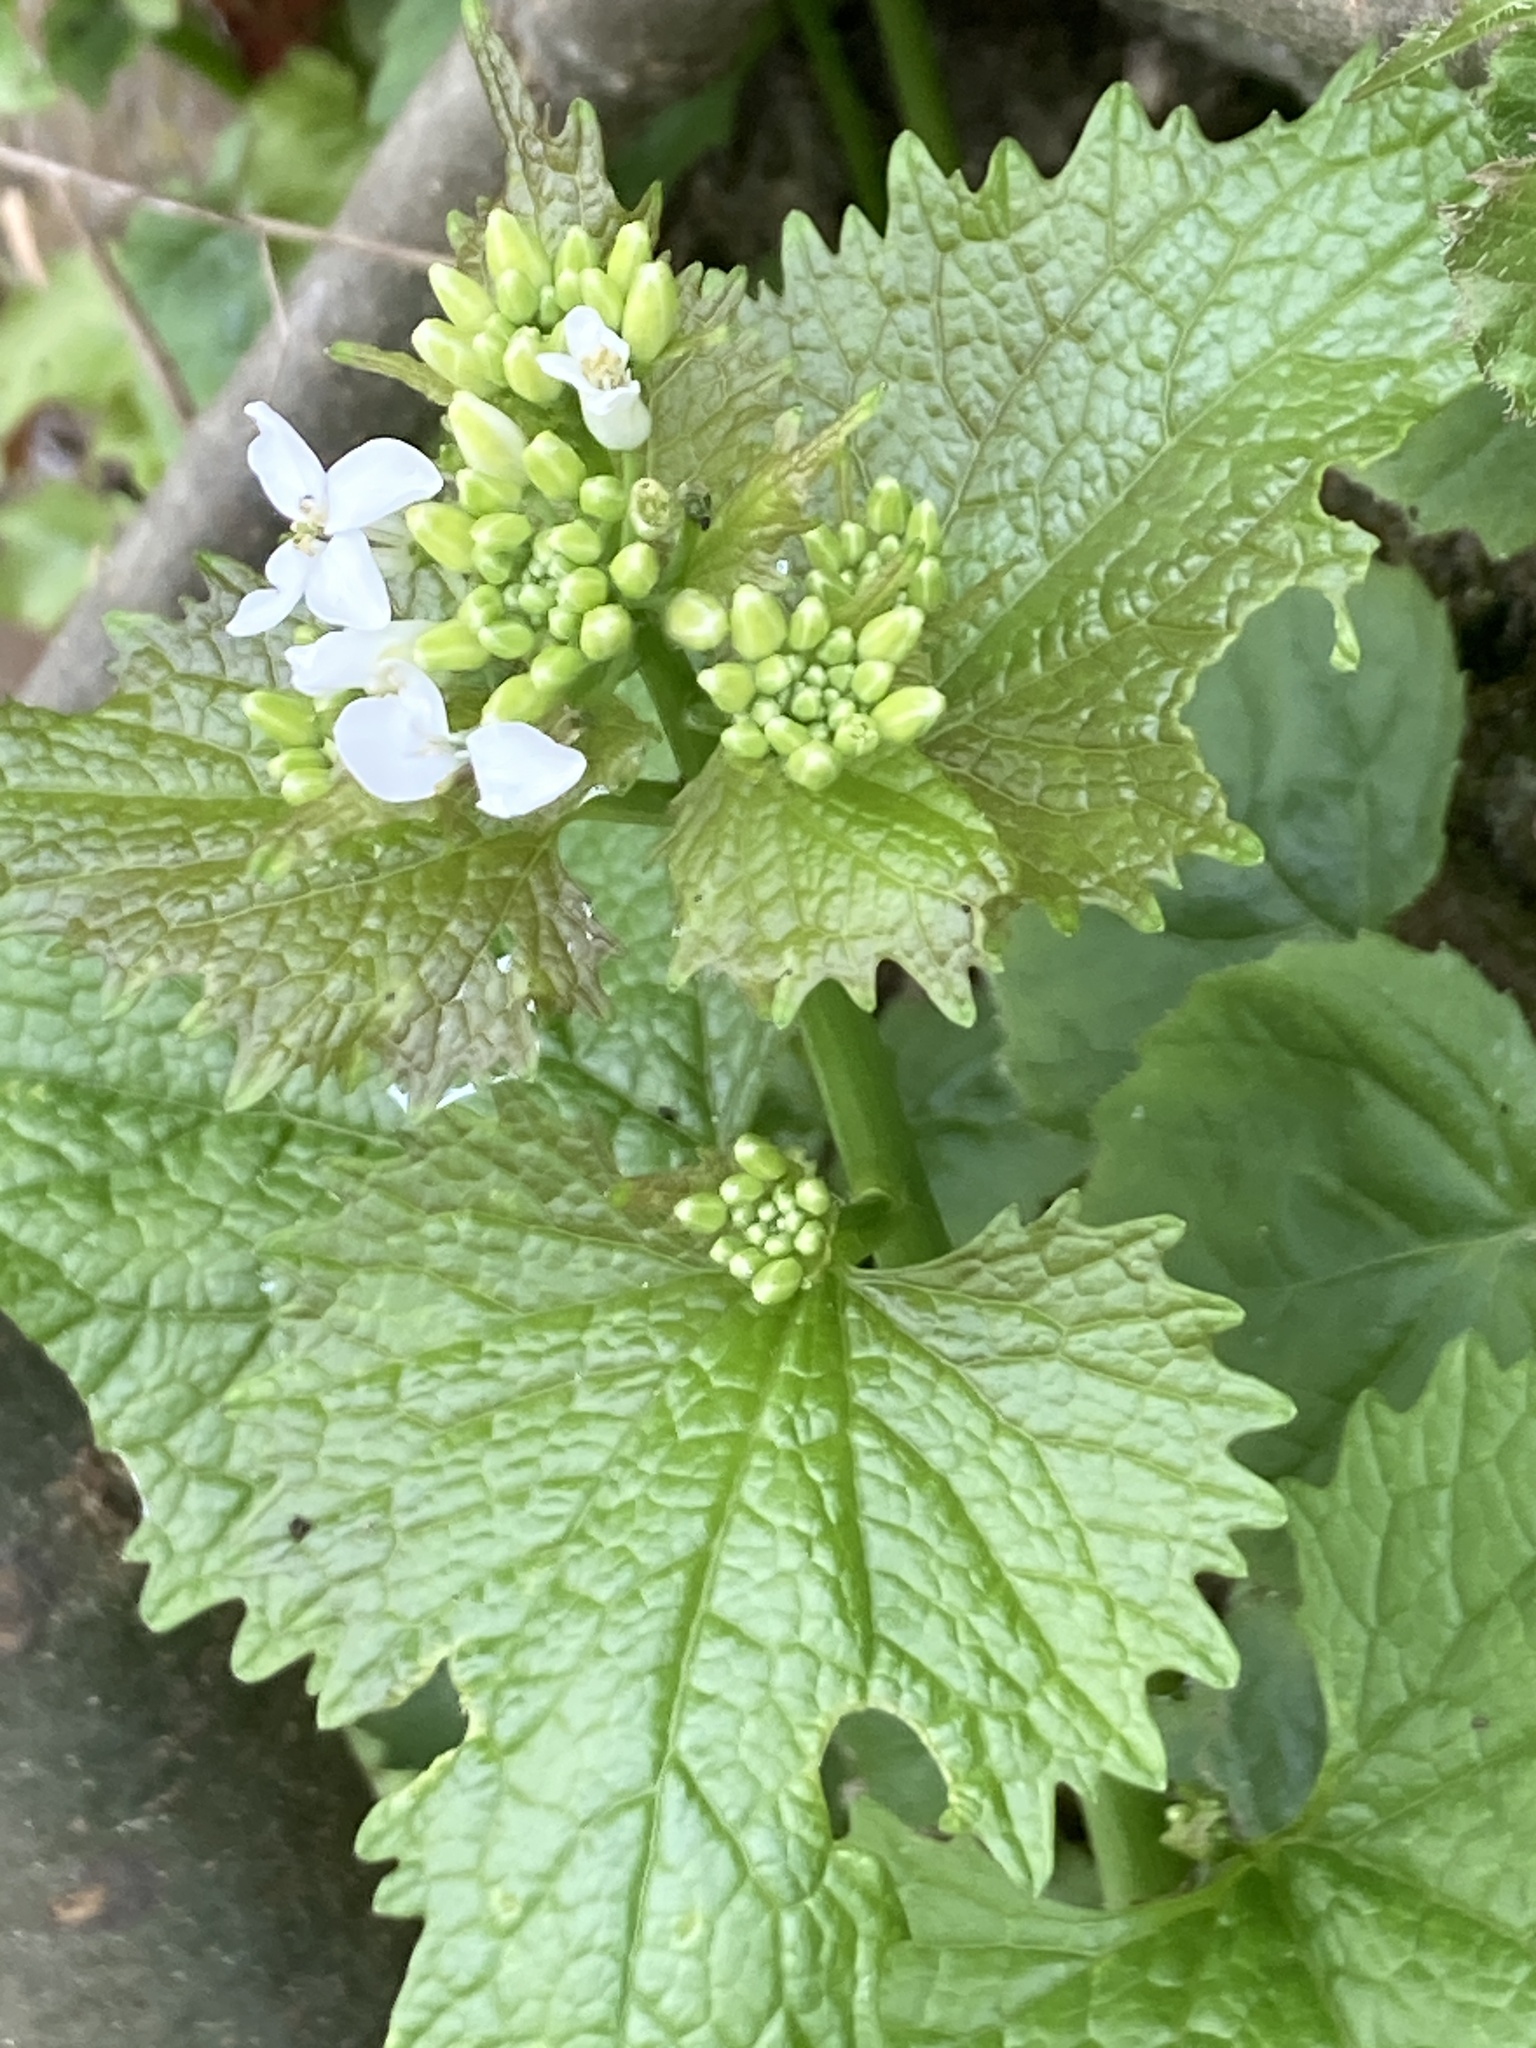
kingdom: Plantae
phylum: Tracheophyta
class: Magnoliopsida
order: Brassicales
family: Brassicaceae
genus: Alliaria
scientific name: Alliaria petiolata
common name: Garlic mustard
